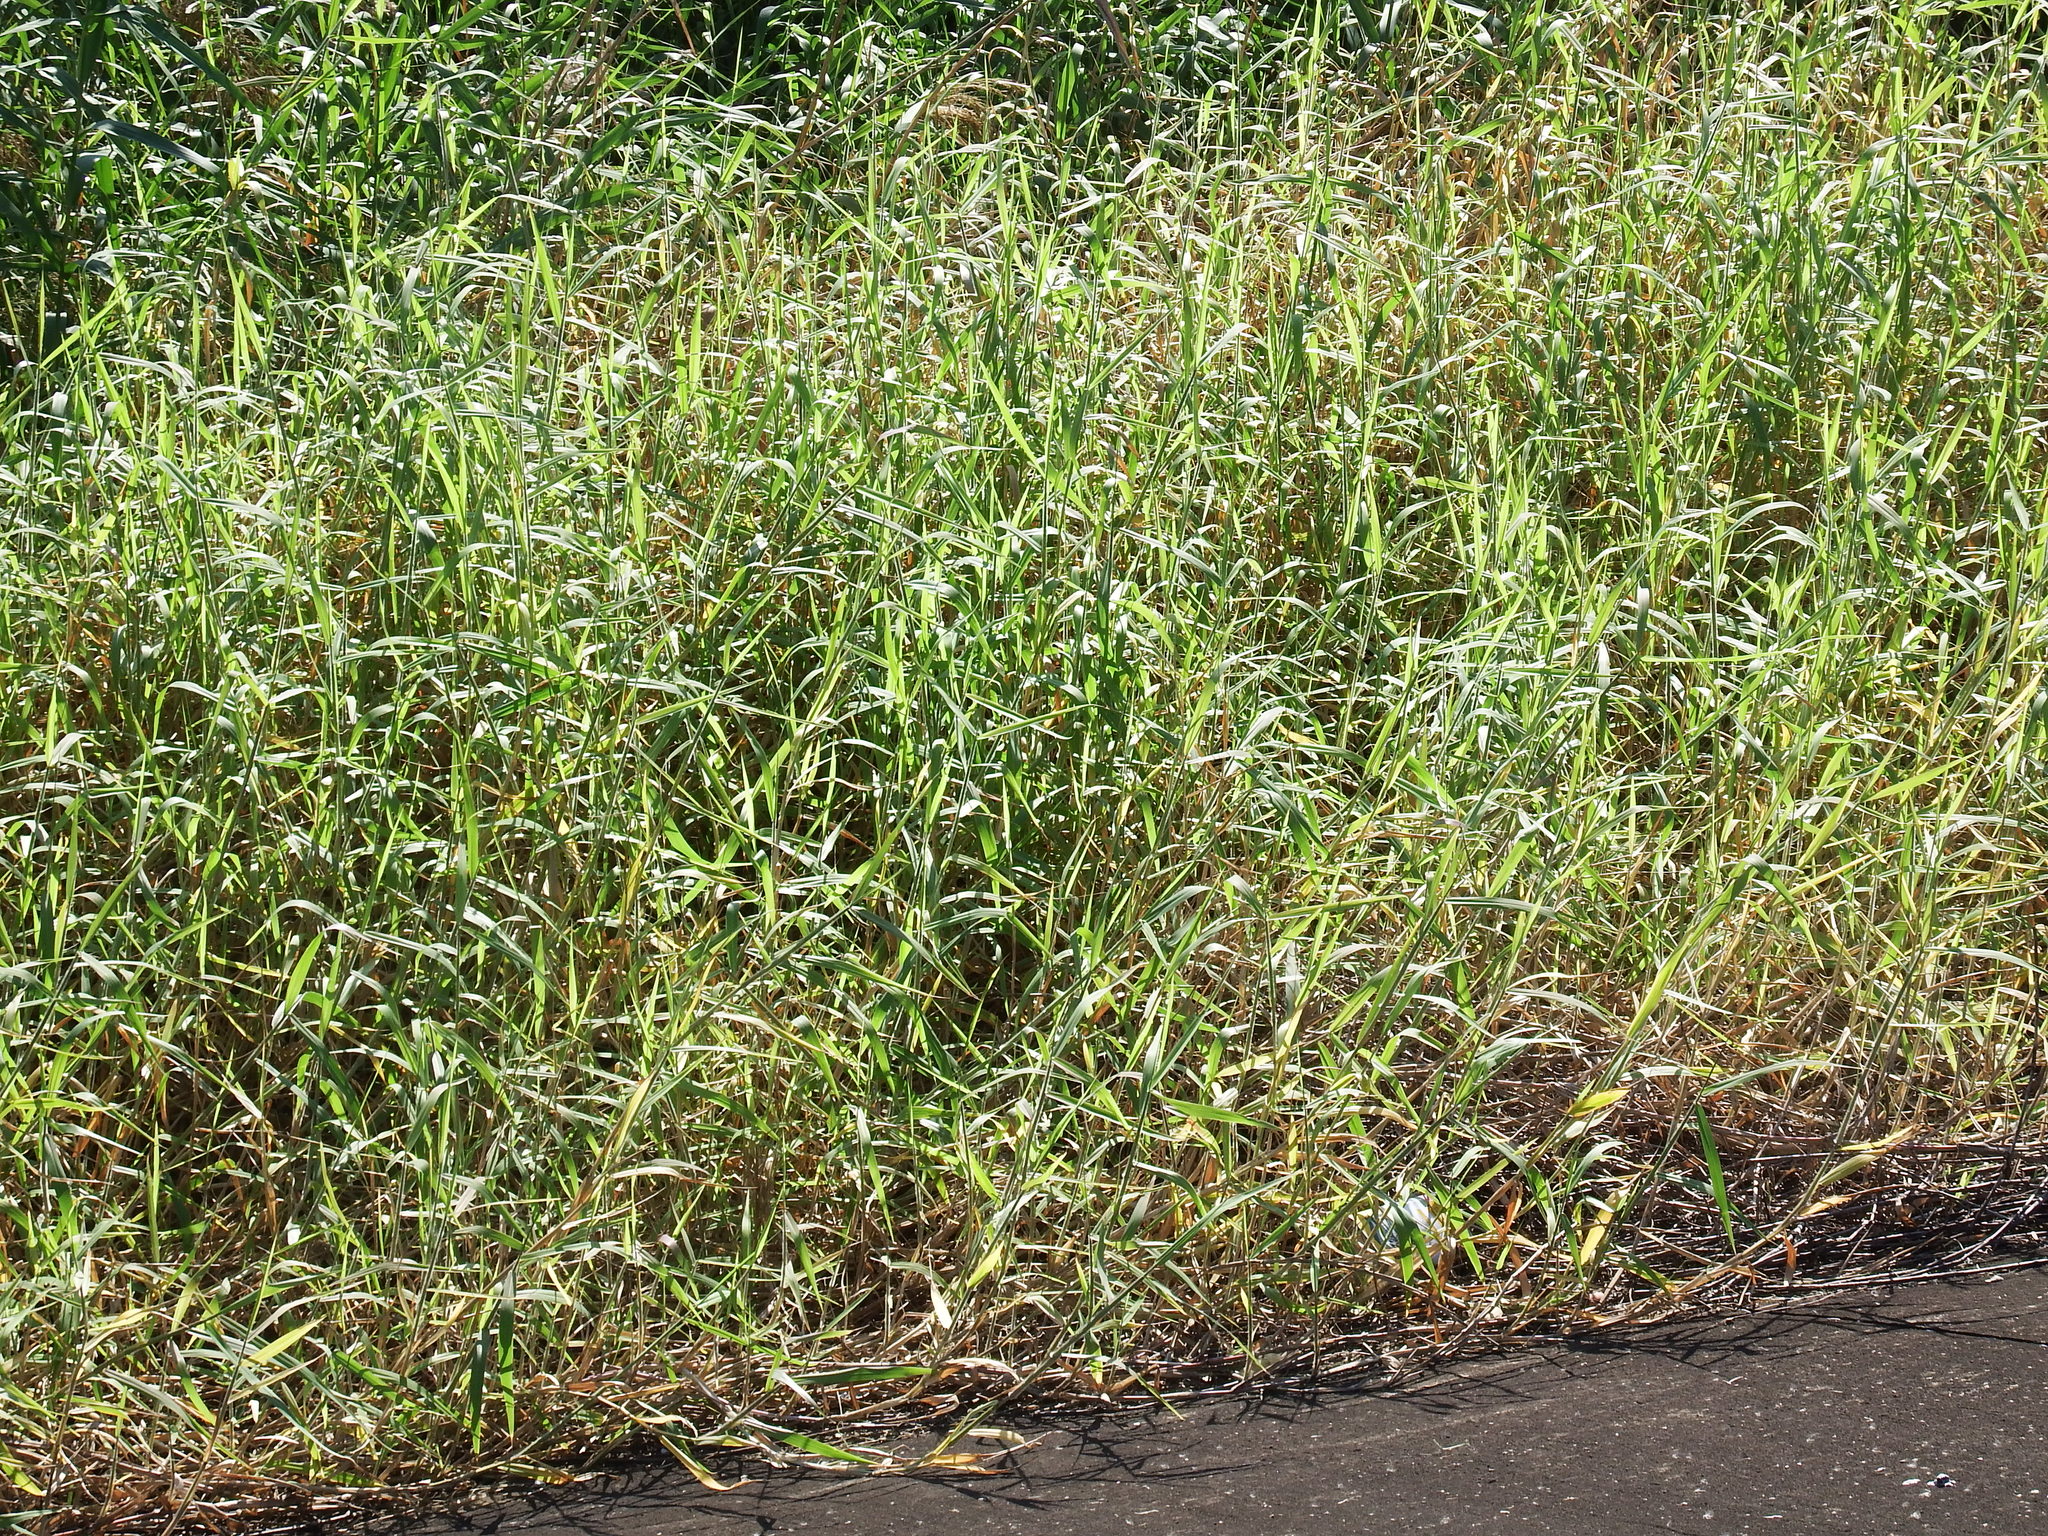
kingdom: Plantae
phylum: Tracheophyta
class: Liliopsida
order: Poales
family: Poaceae
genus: Urochloa
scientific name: Urochloa mutica
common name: Para grass
